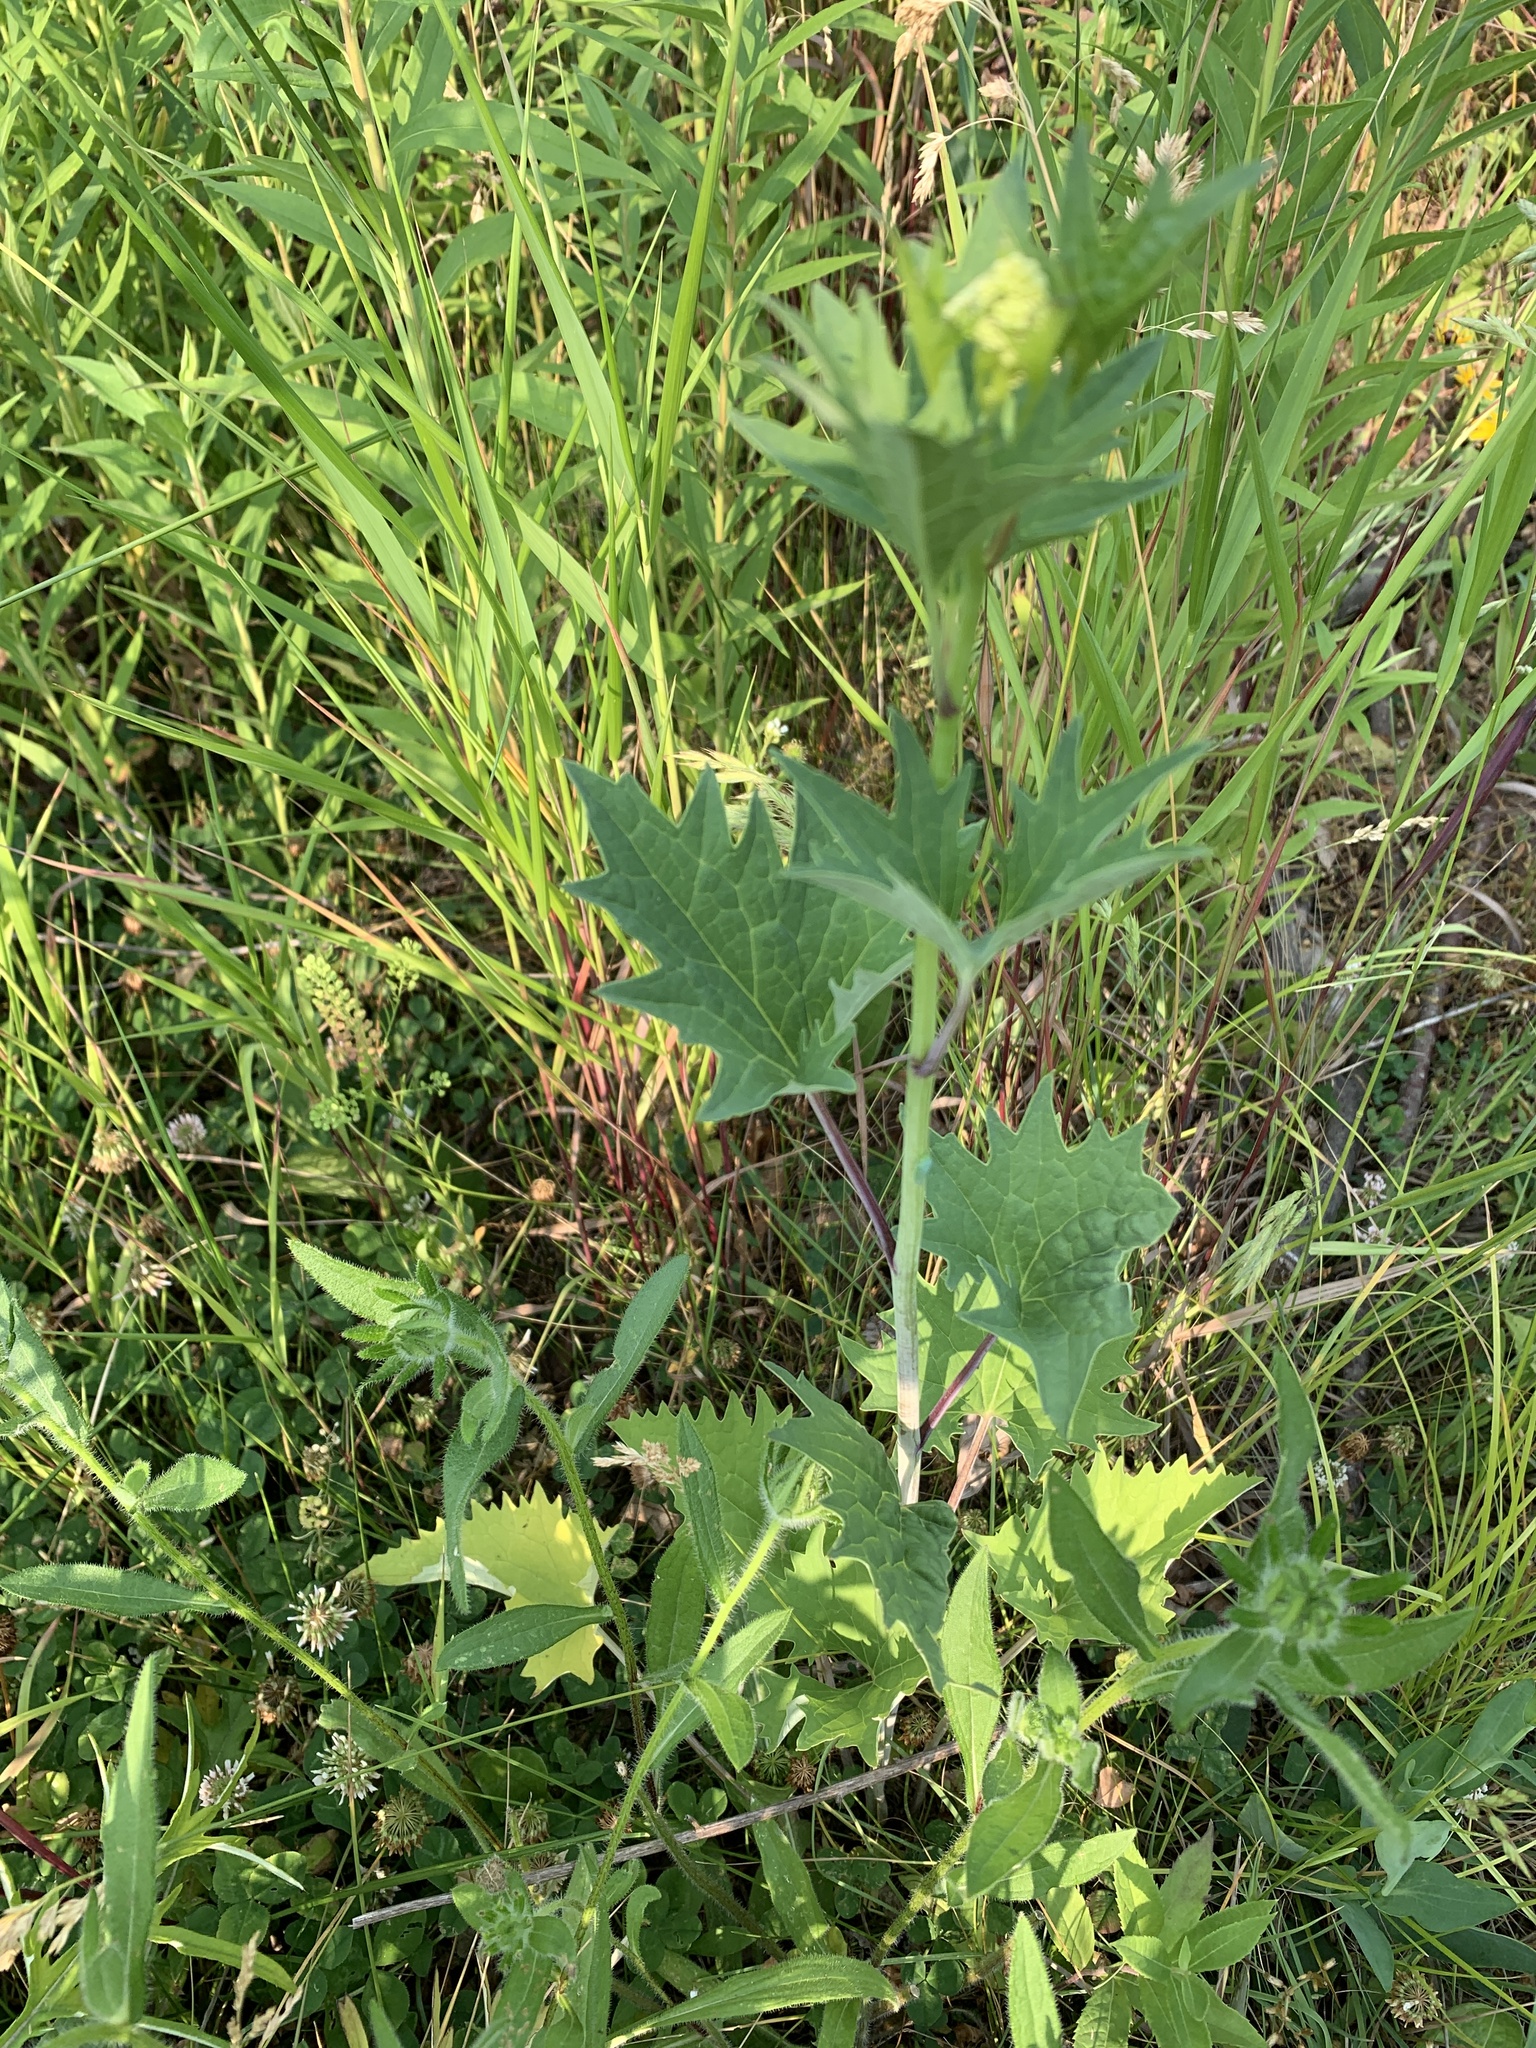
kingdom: Plantae
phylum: Tracheophyta
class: Magnoliopsida
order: Asterales
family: Asteraceae
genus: Arnoglossum
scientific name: Arnoglossum atriplicifolium
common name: Pale indian-plantain
